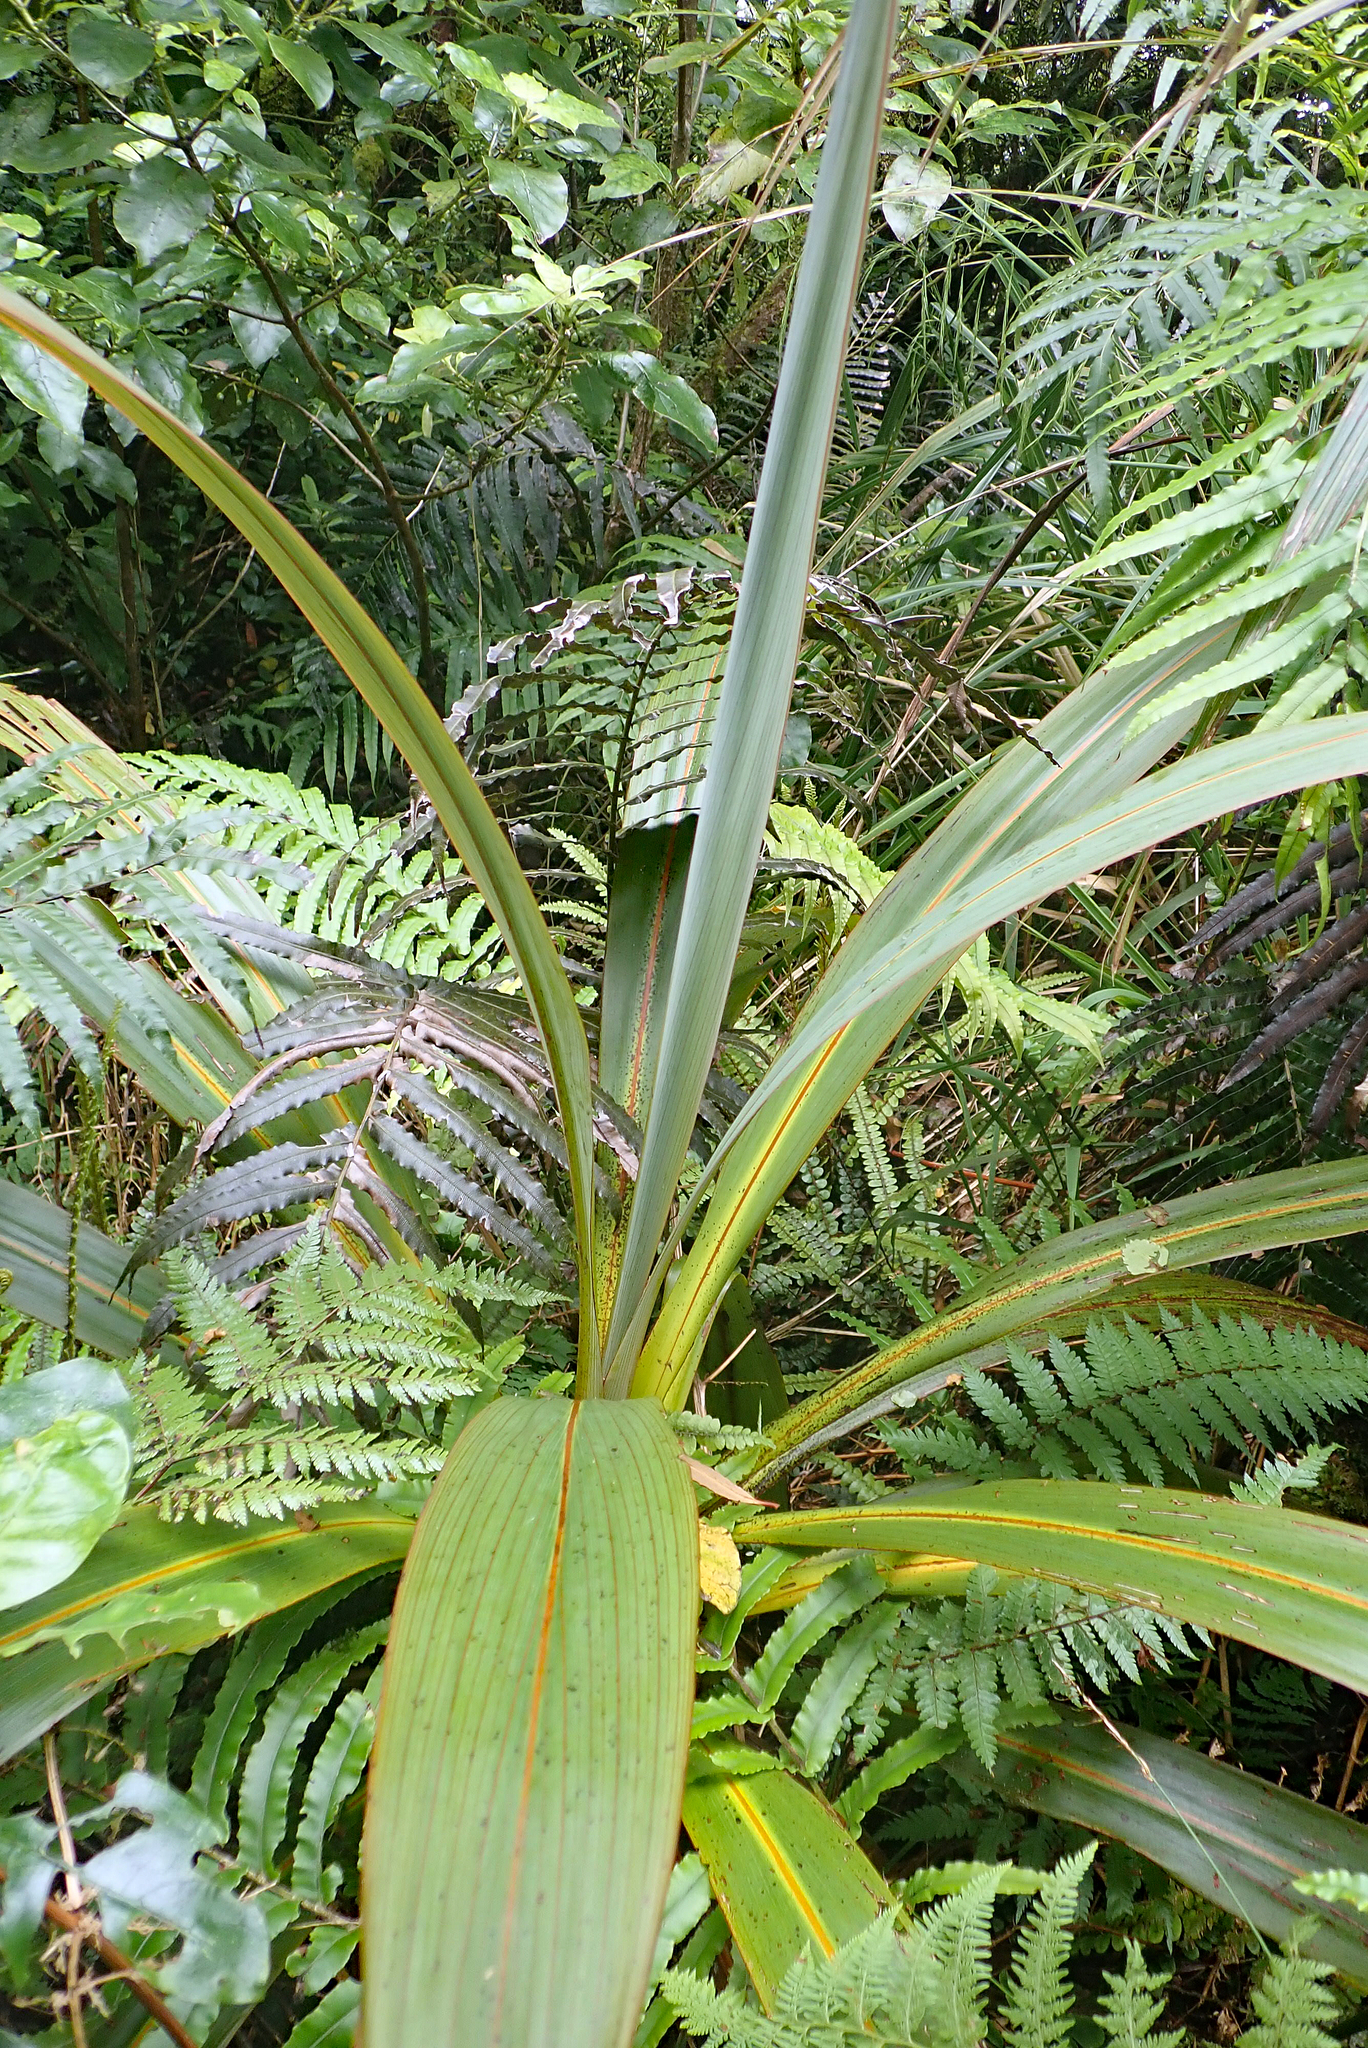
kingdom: Plantae
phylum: Tracheophyta
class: Liliopsida
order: Asparagales
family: Asparagaceae
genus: Cordyline
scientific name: Cordyline indivisa
